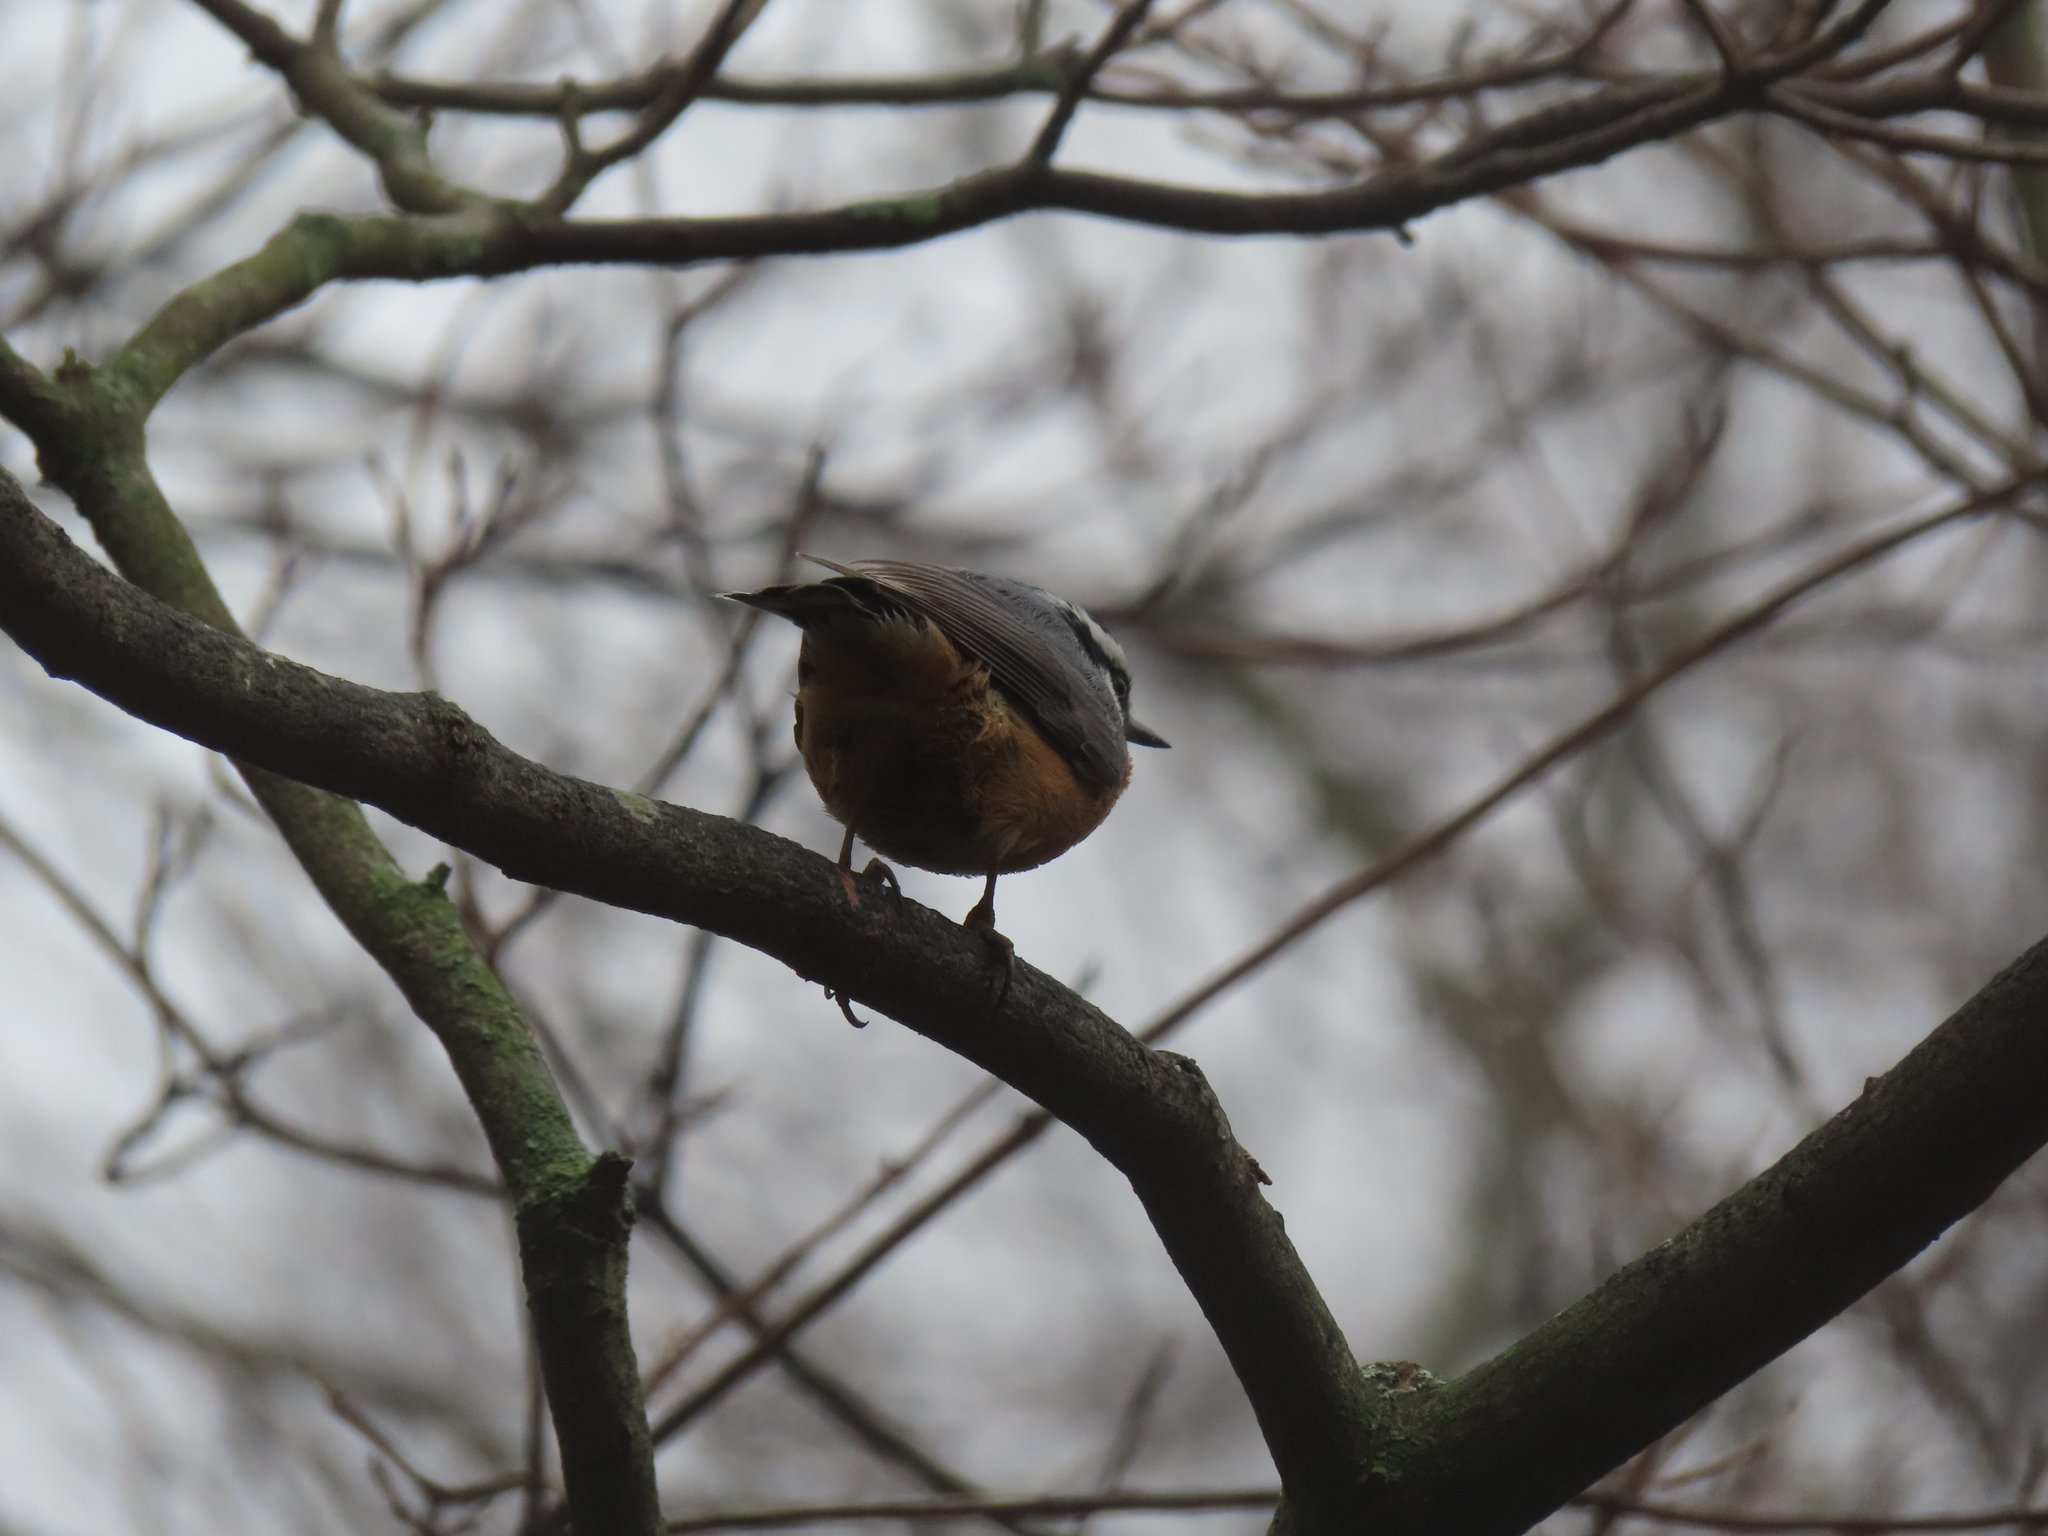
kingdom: Animalia
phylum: Chordata
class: Aves
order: Passeriformes
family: Sittidae
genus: Sitta
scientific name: Sitta canadensis
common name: Red-breasted nuthatch
